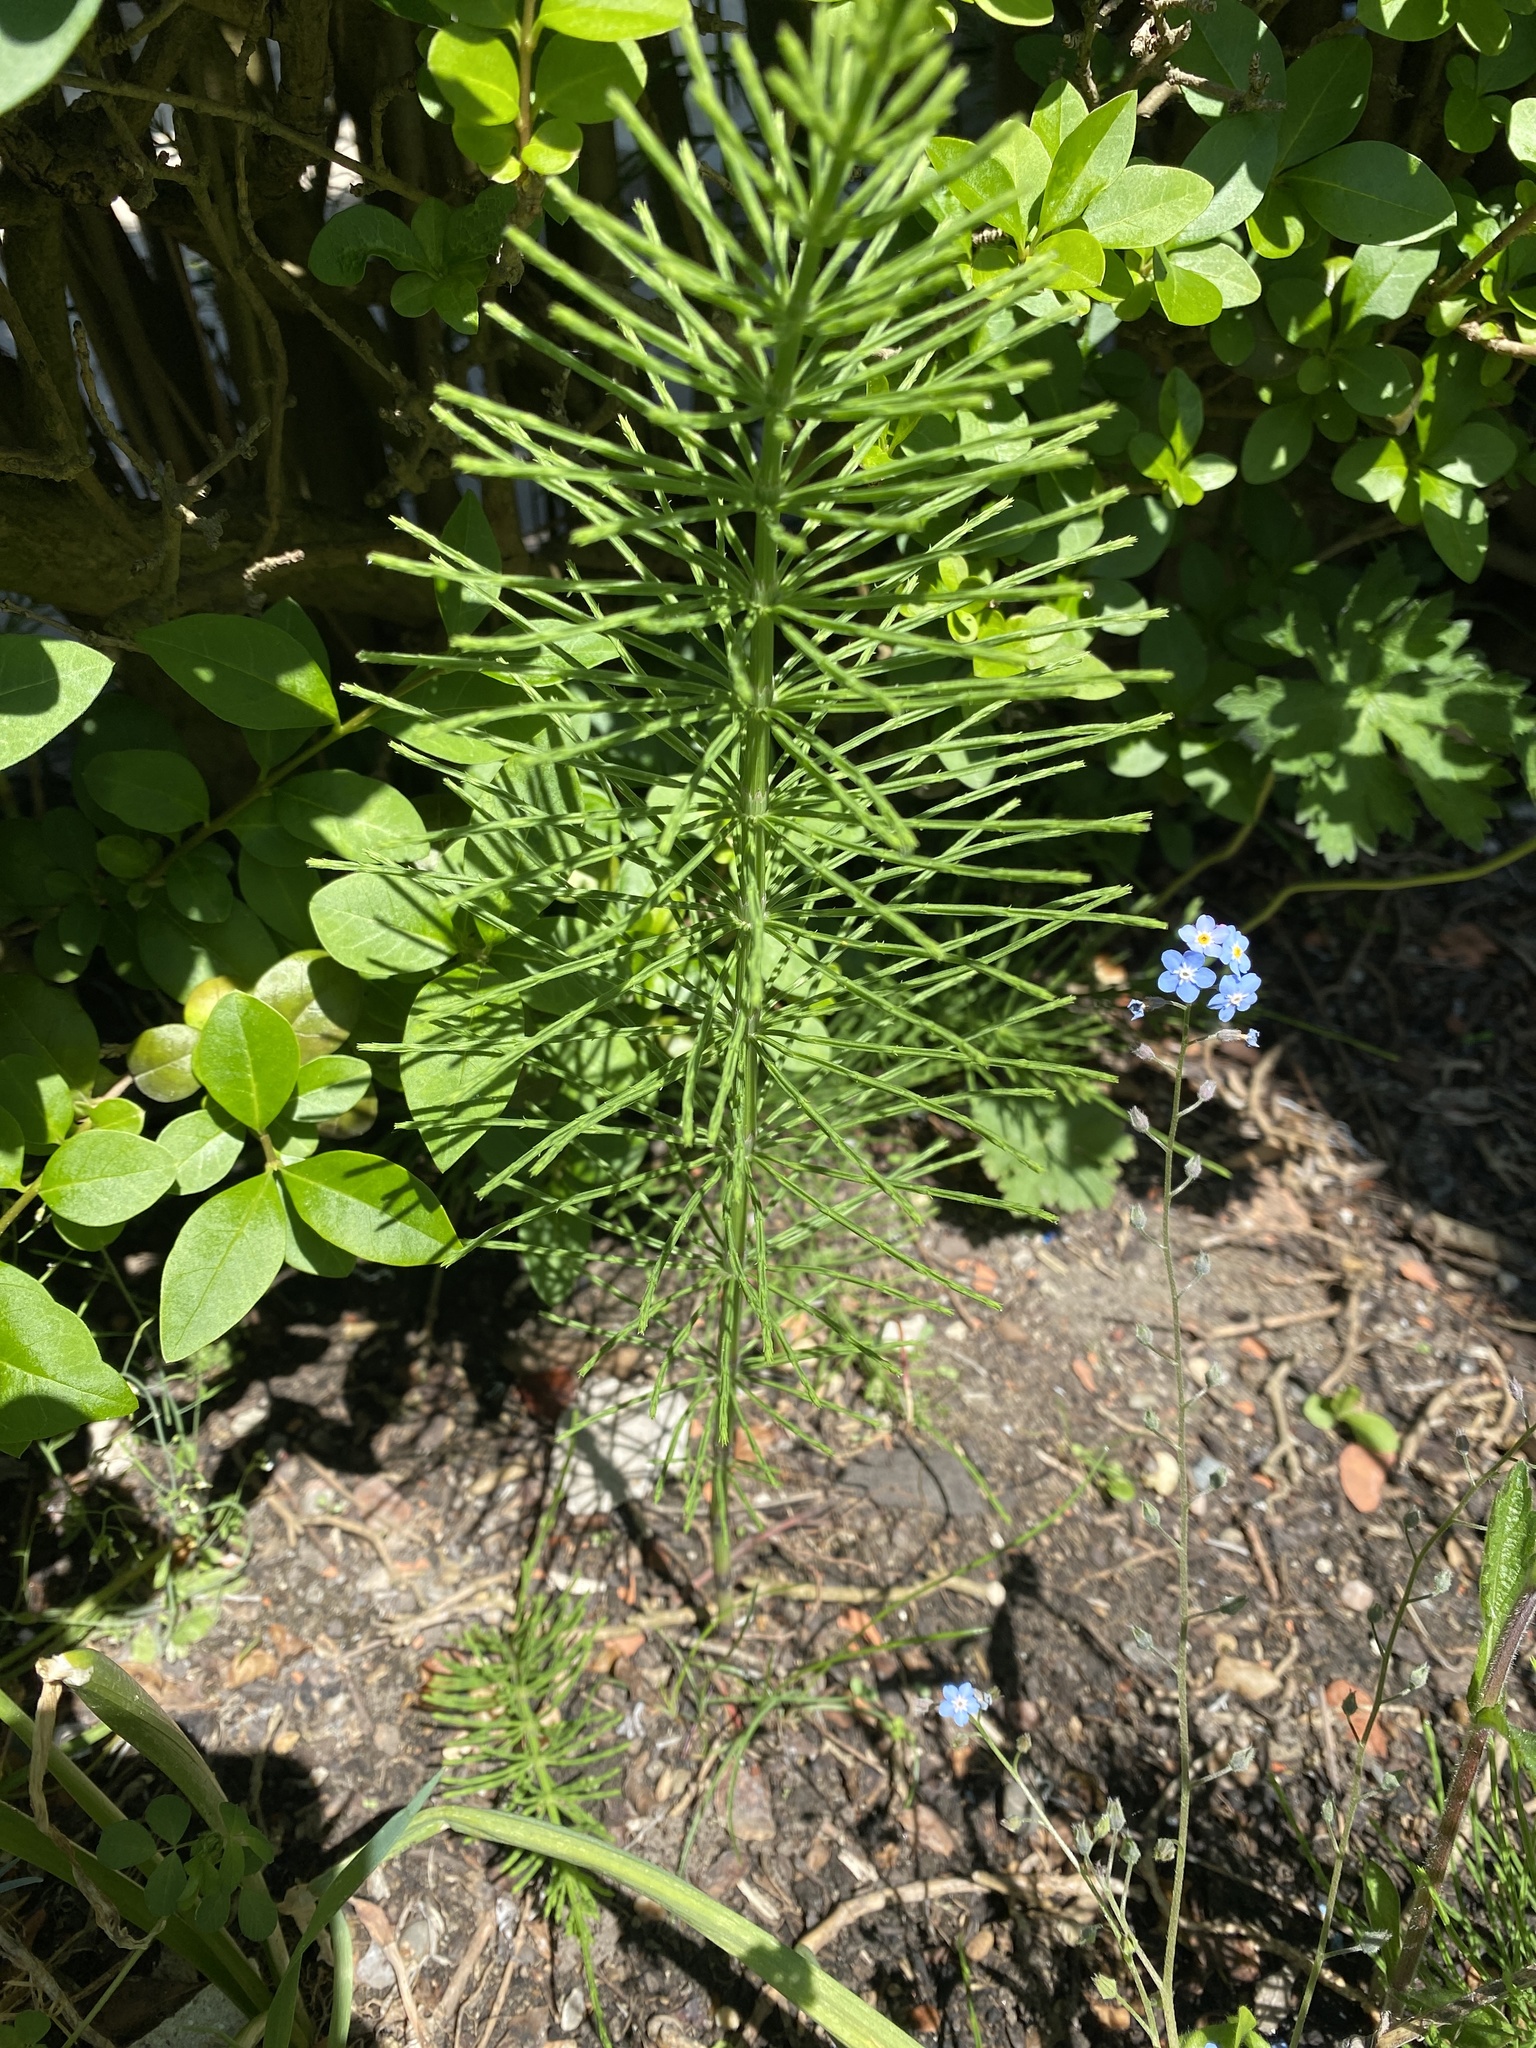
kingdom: Plantae
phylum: Tracheophyta
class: Polypodiopsida
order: Equisetales
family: Equisetaceae
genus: Equisetum
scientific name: Equisetum arvense
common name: Field horsetail
